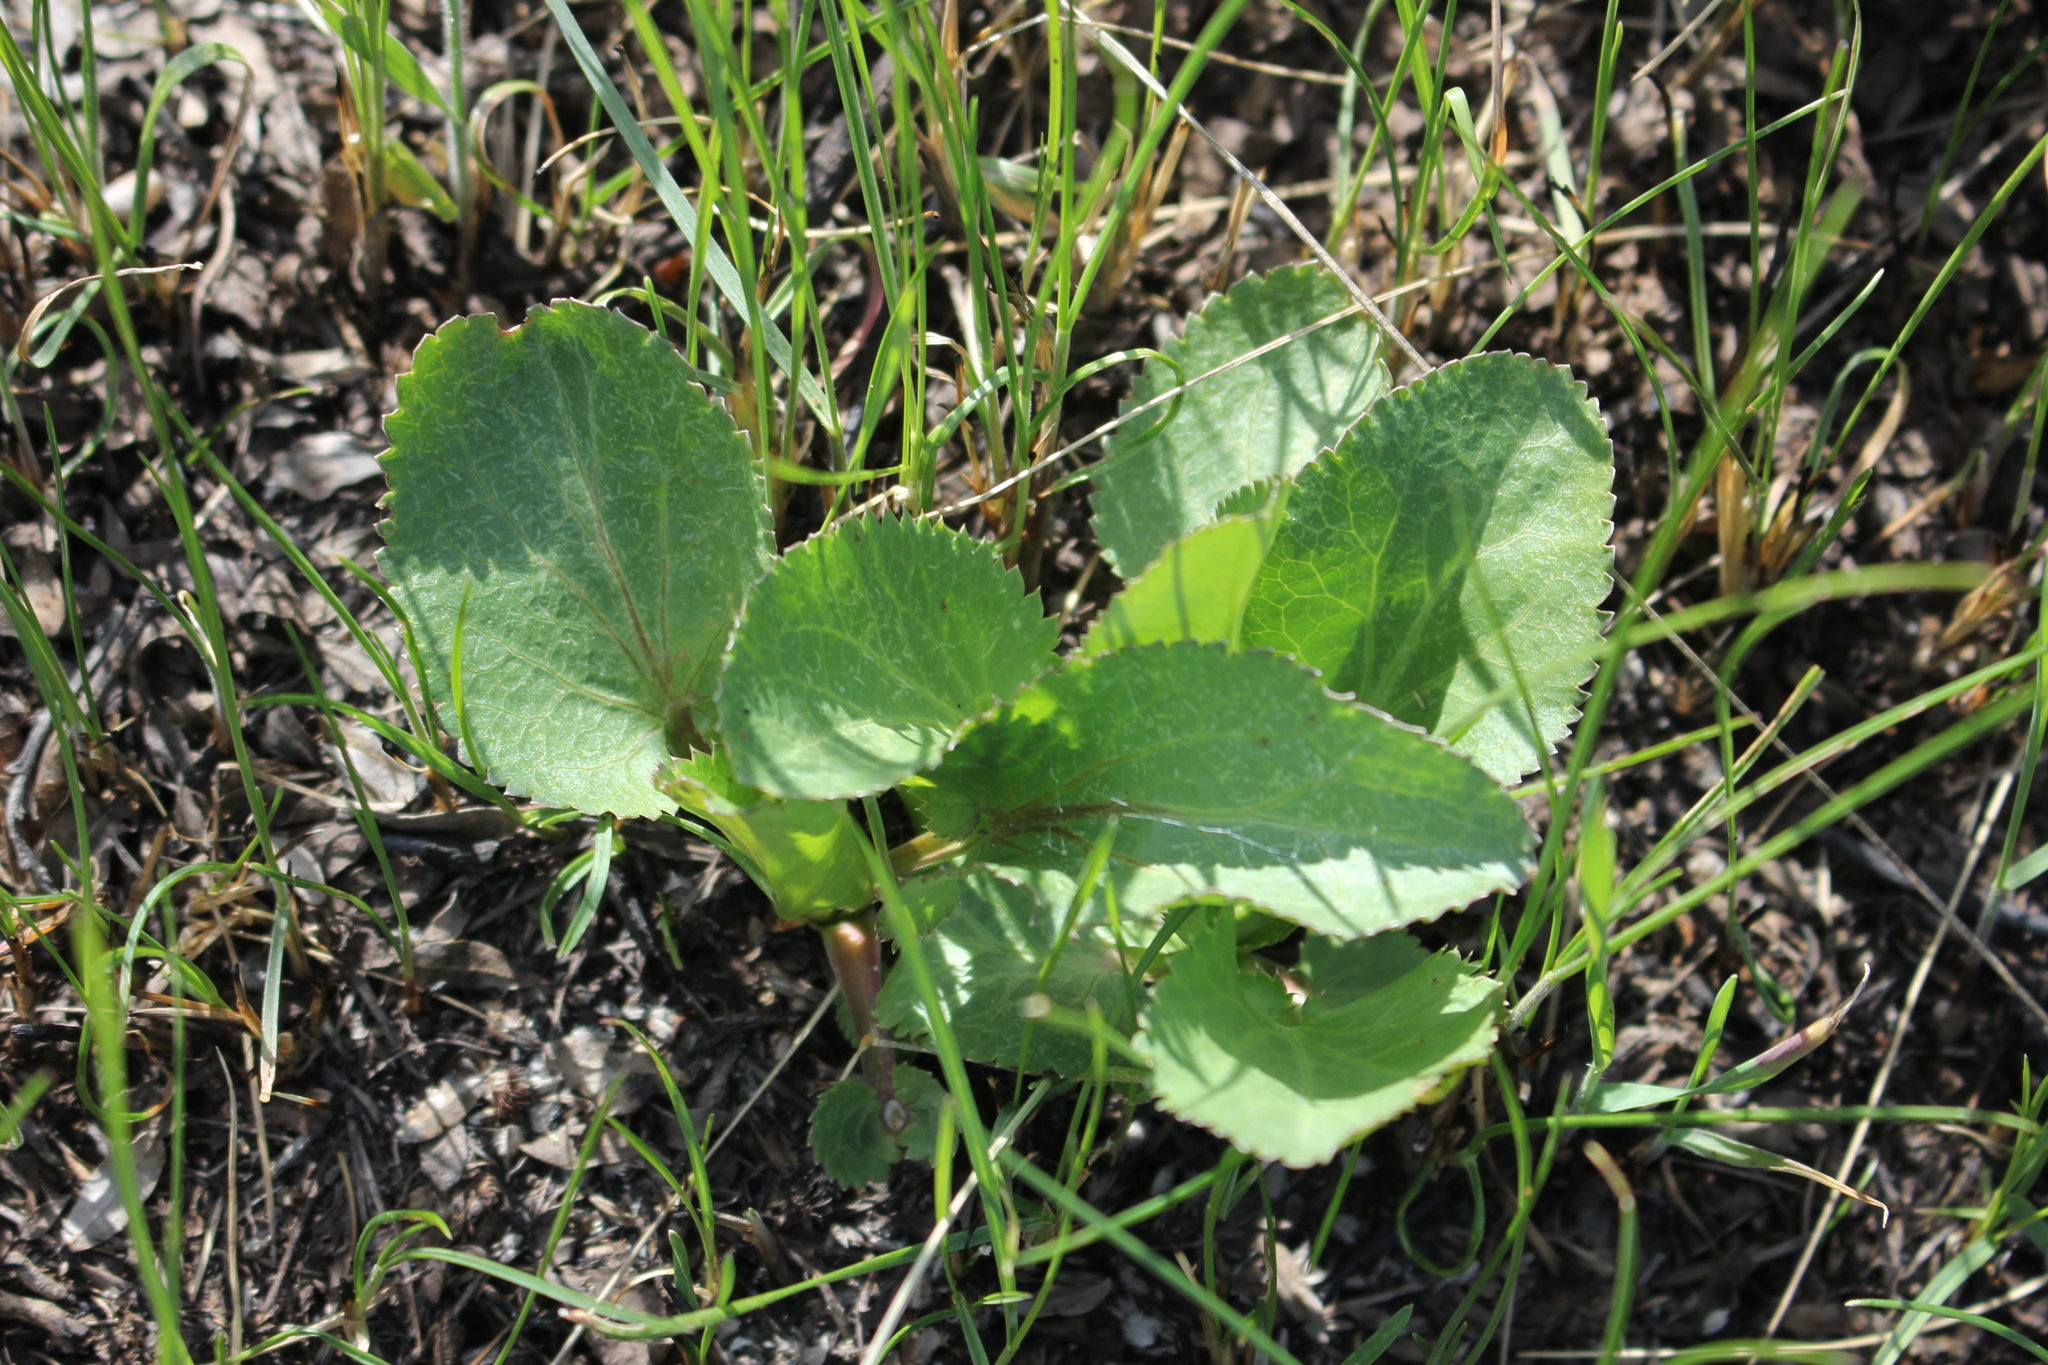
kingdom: Plantae
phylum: Tracheophyta
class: Magnoliopsida
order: Apiales
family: Apiaceae
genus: Eryngium
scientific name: Eryngium planum
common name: Blue eryngo
